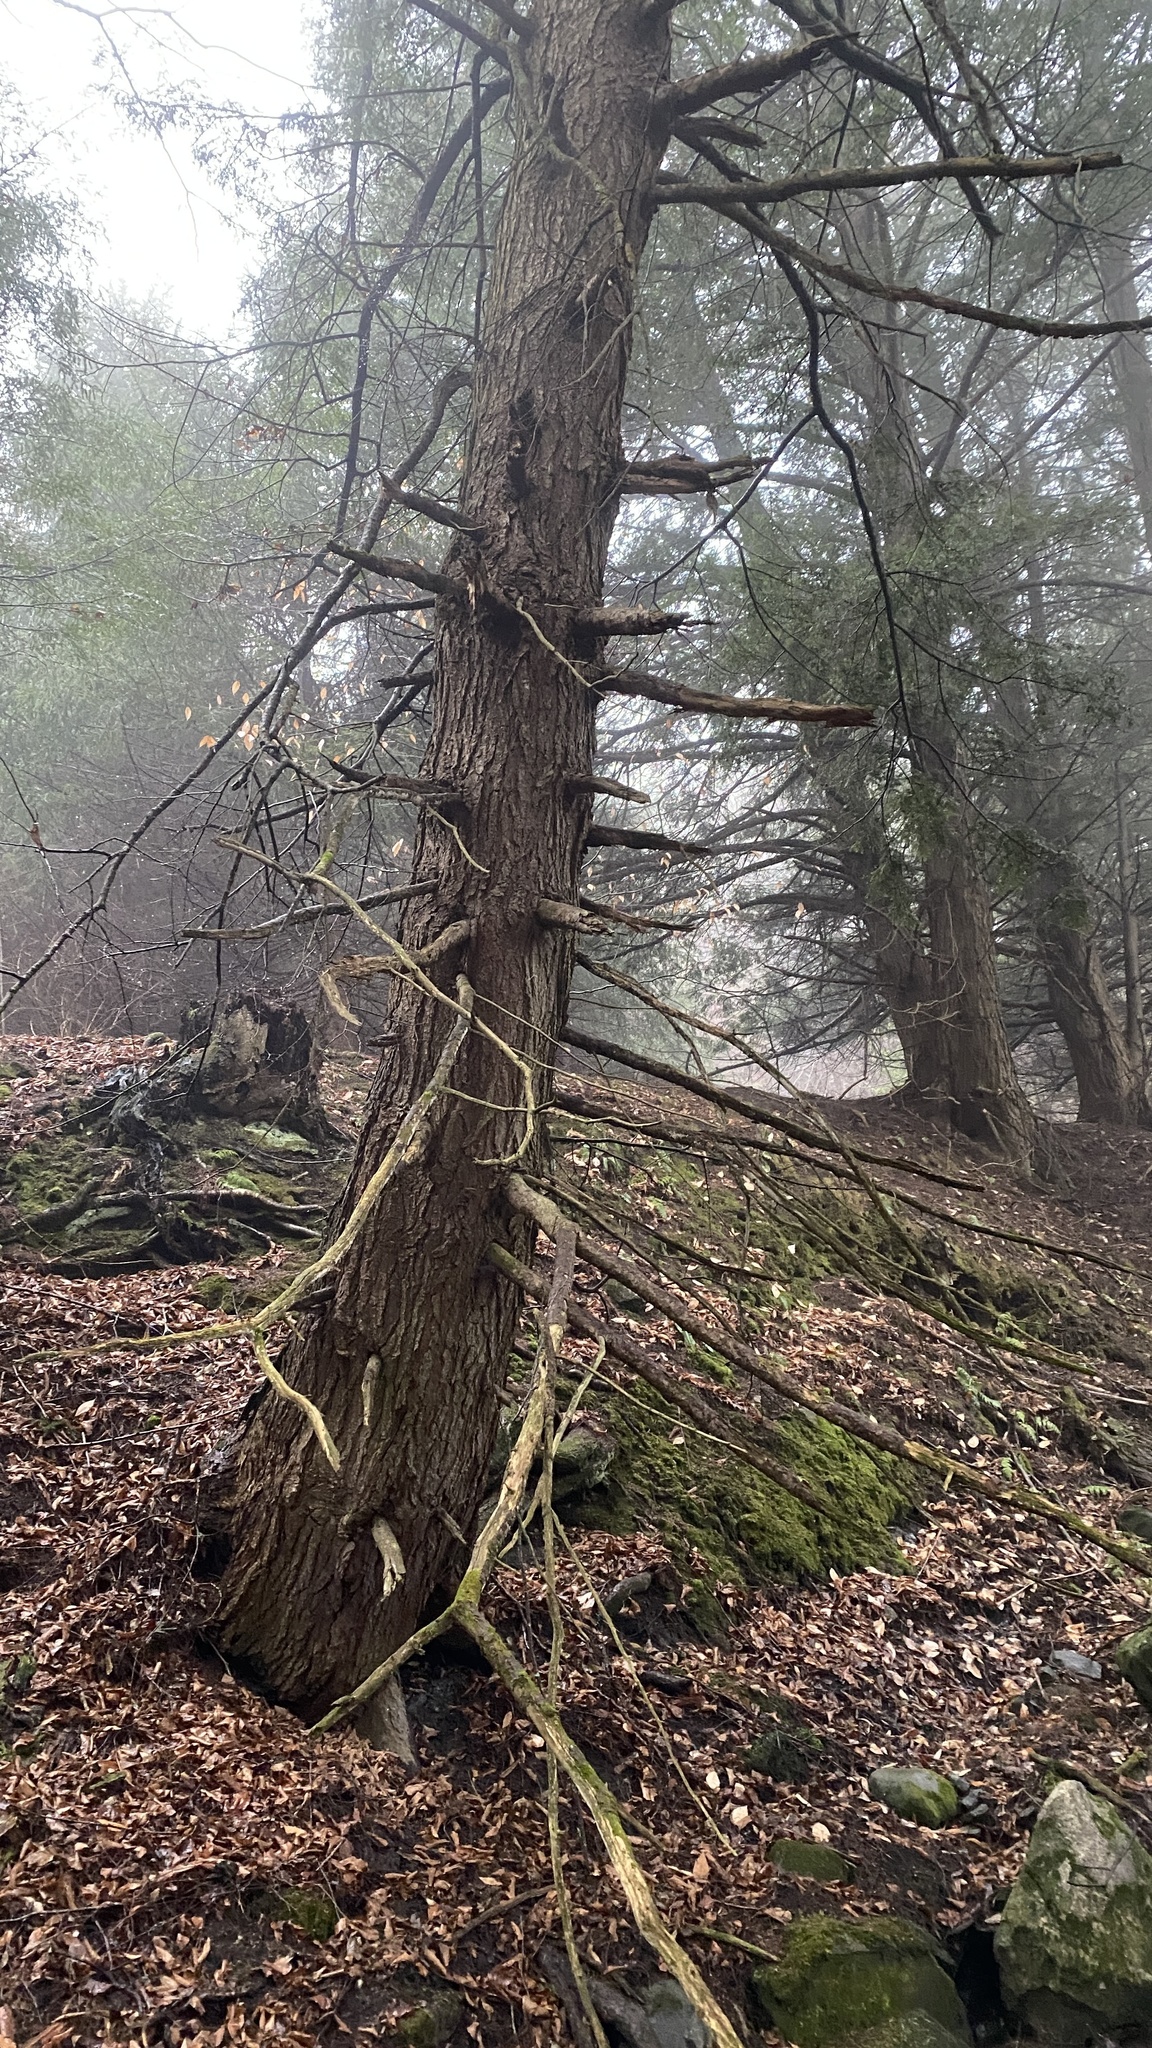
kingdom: Plantae
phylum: Tracheophyta
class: Pinopsida
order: Pinales
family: Pinaceae
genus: Tsuga
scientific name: Tsuga canadensis
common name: Eastern hemlock
